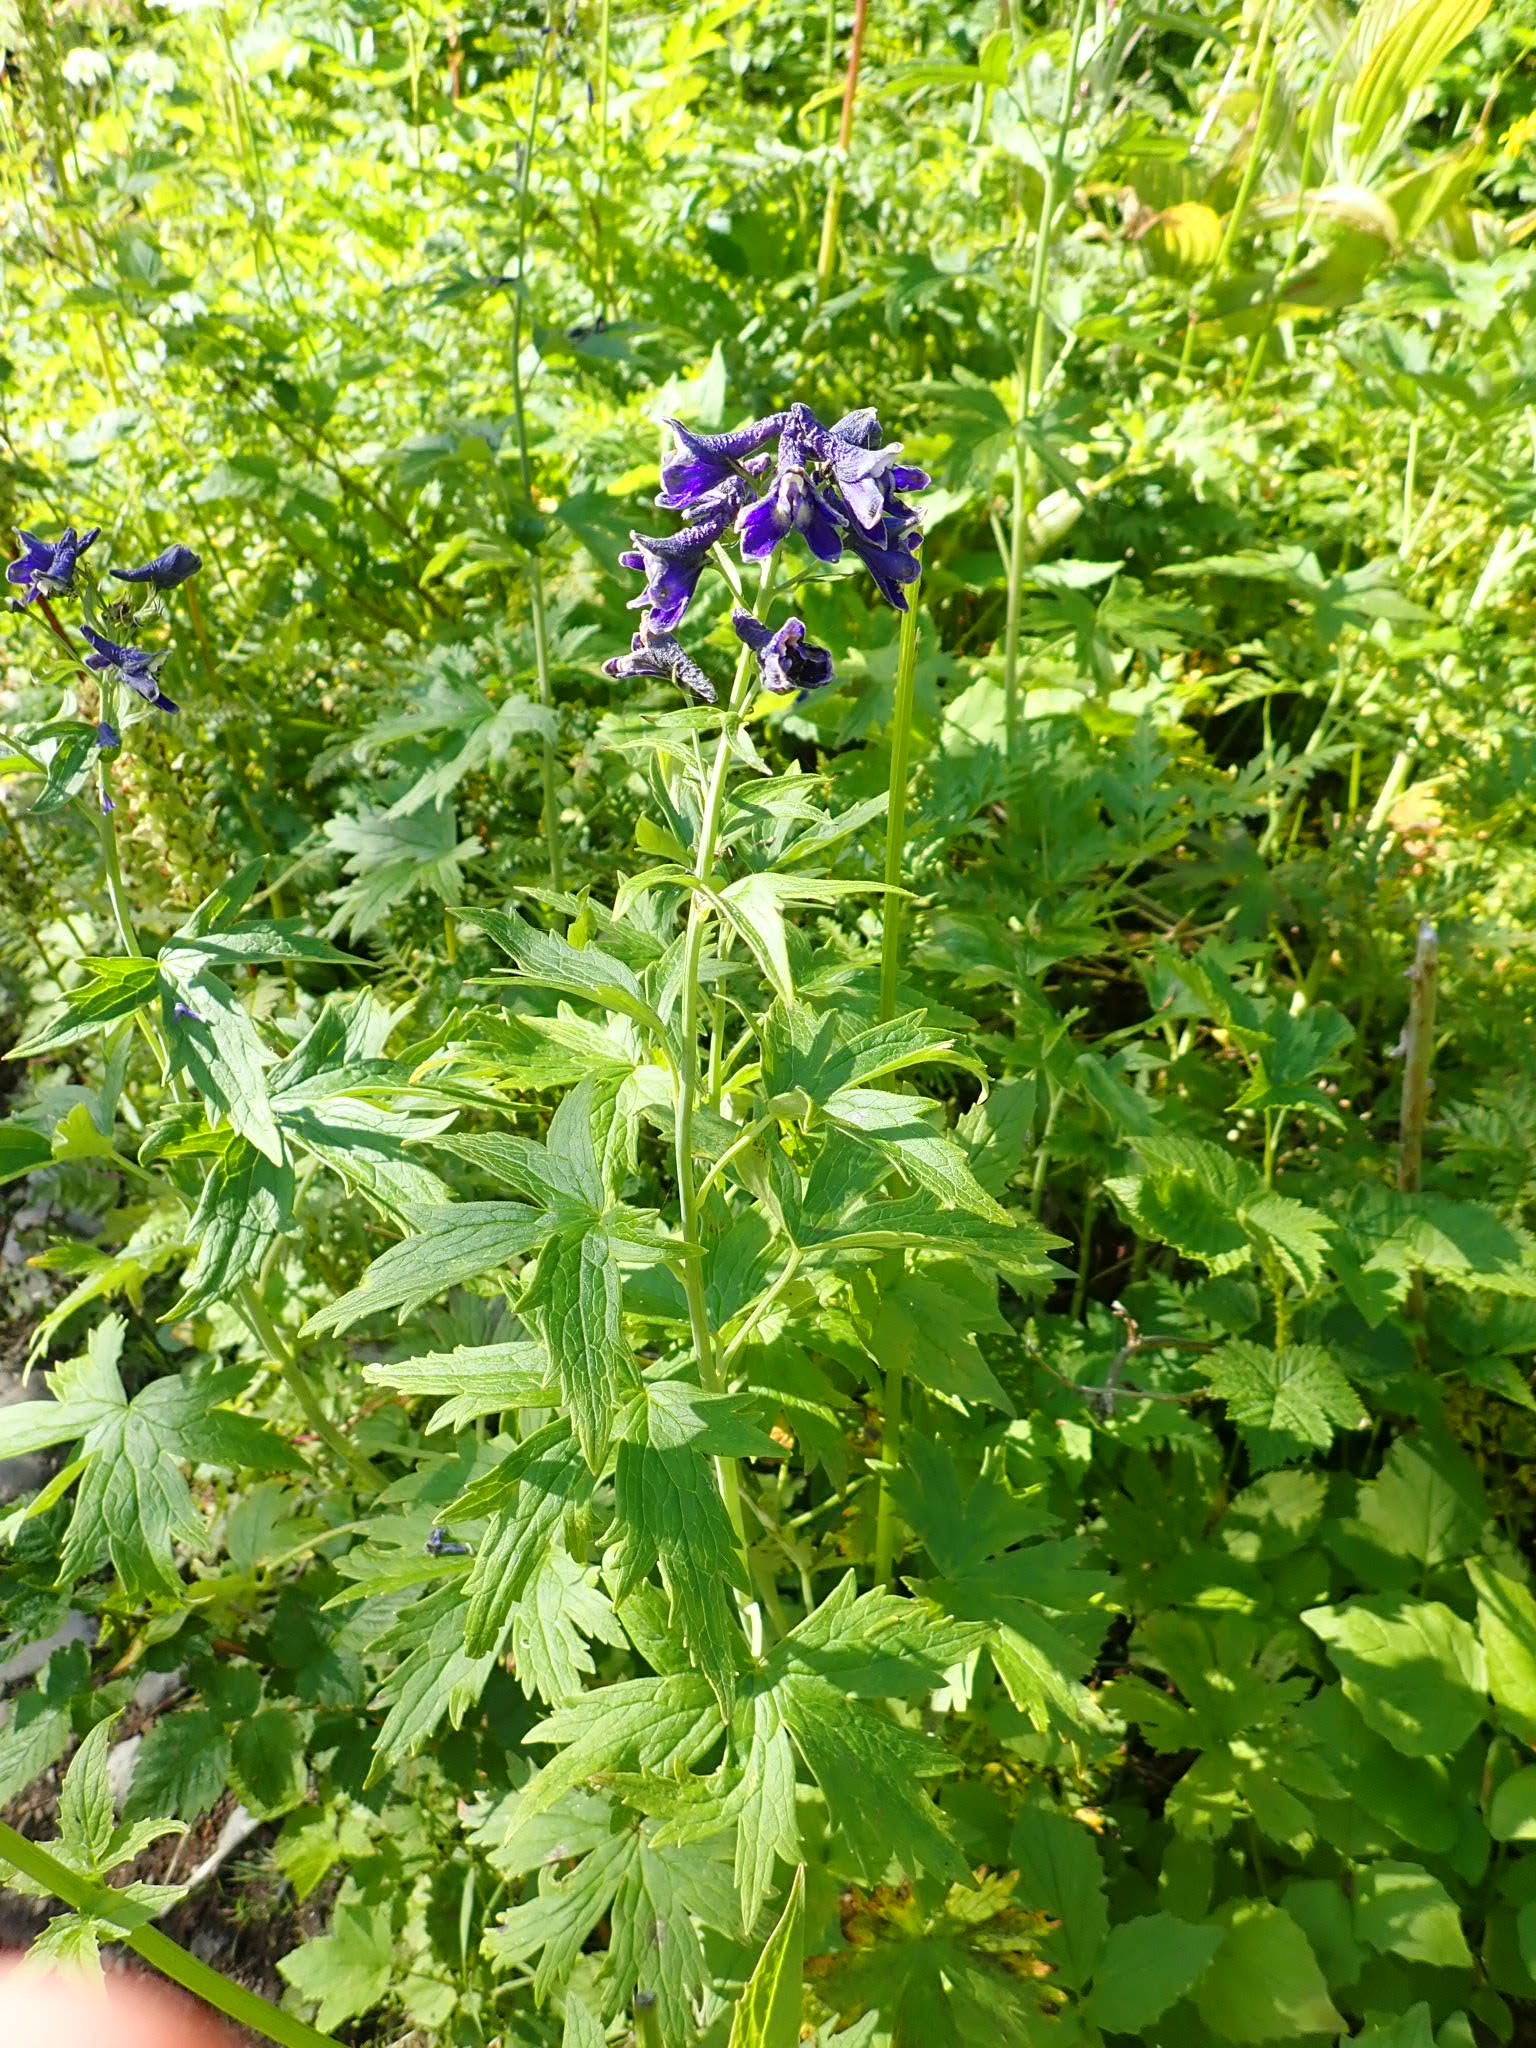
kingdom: Plantae
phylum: Tracheophyta
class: Magnoliopsida
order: Ranunculales
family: Ranunculaceae
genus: Delphinium
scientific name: Delphinium glaucum
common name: Brown's larkspur
